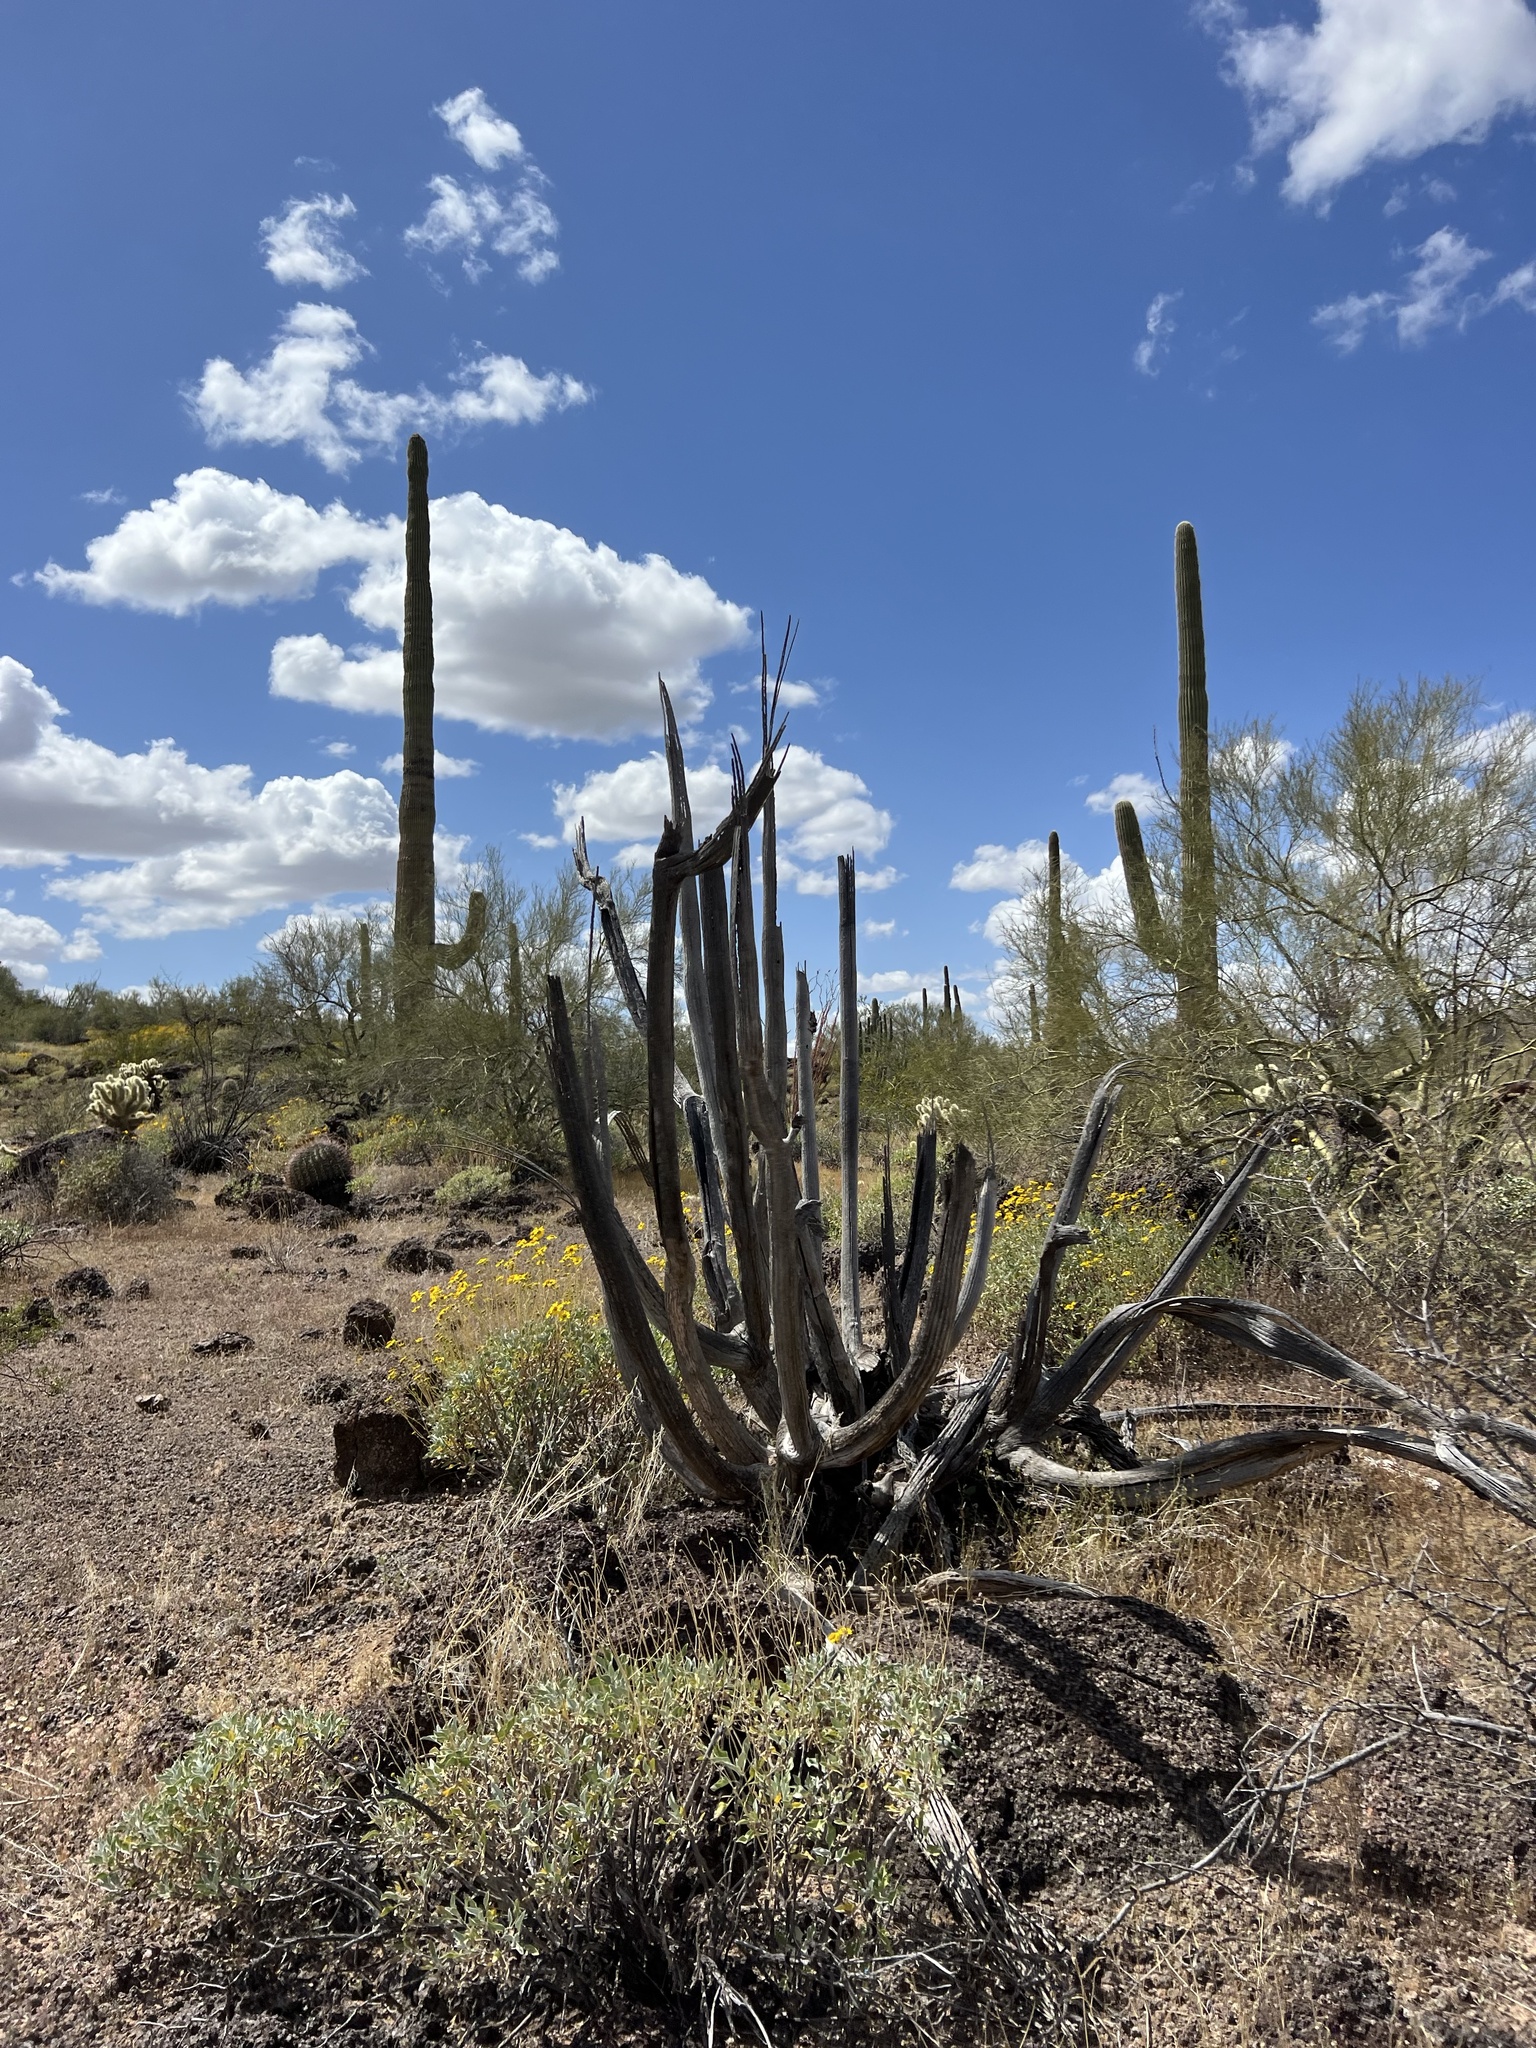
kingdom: Plantae
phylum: Tracheophyta
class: Magnoliopsida
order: Caryophyllales
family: Cactaceae
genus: Stenocereus
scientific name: Stenocereus thurberi
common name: Organ pipe cactus
